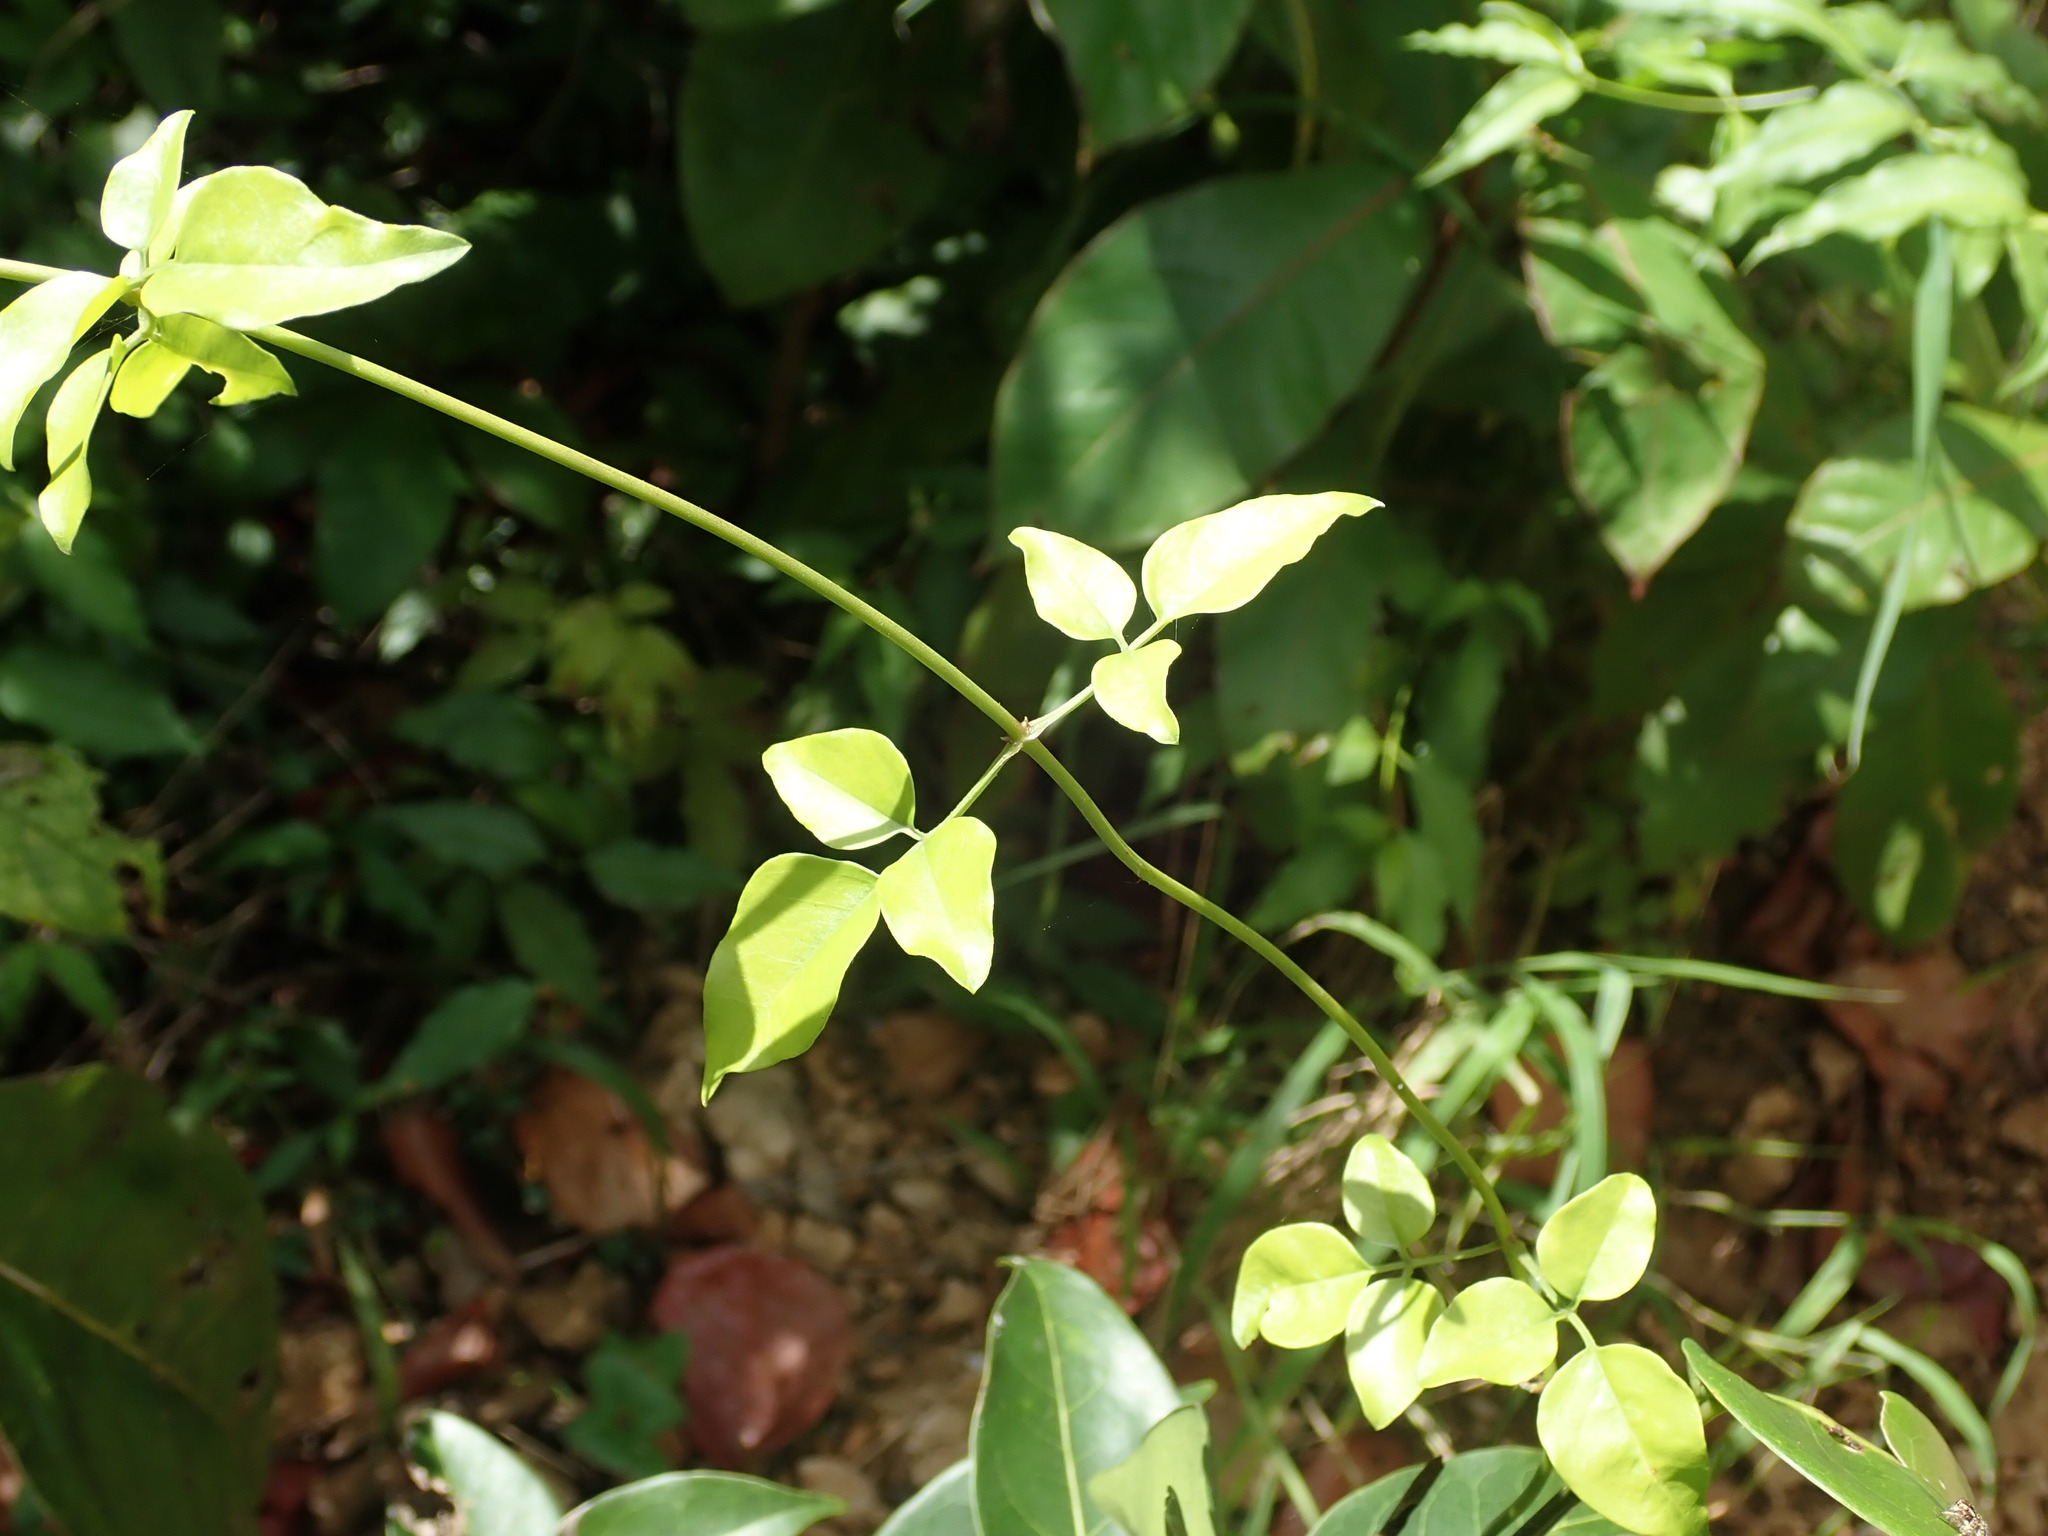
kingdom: Plantae
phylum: Tracheophyta
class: Magnoliopsida
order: Lamiales
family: Oleaceae
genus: Jasminum
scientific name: Jasminum fluminense
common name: Brazilian jasmine
